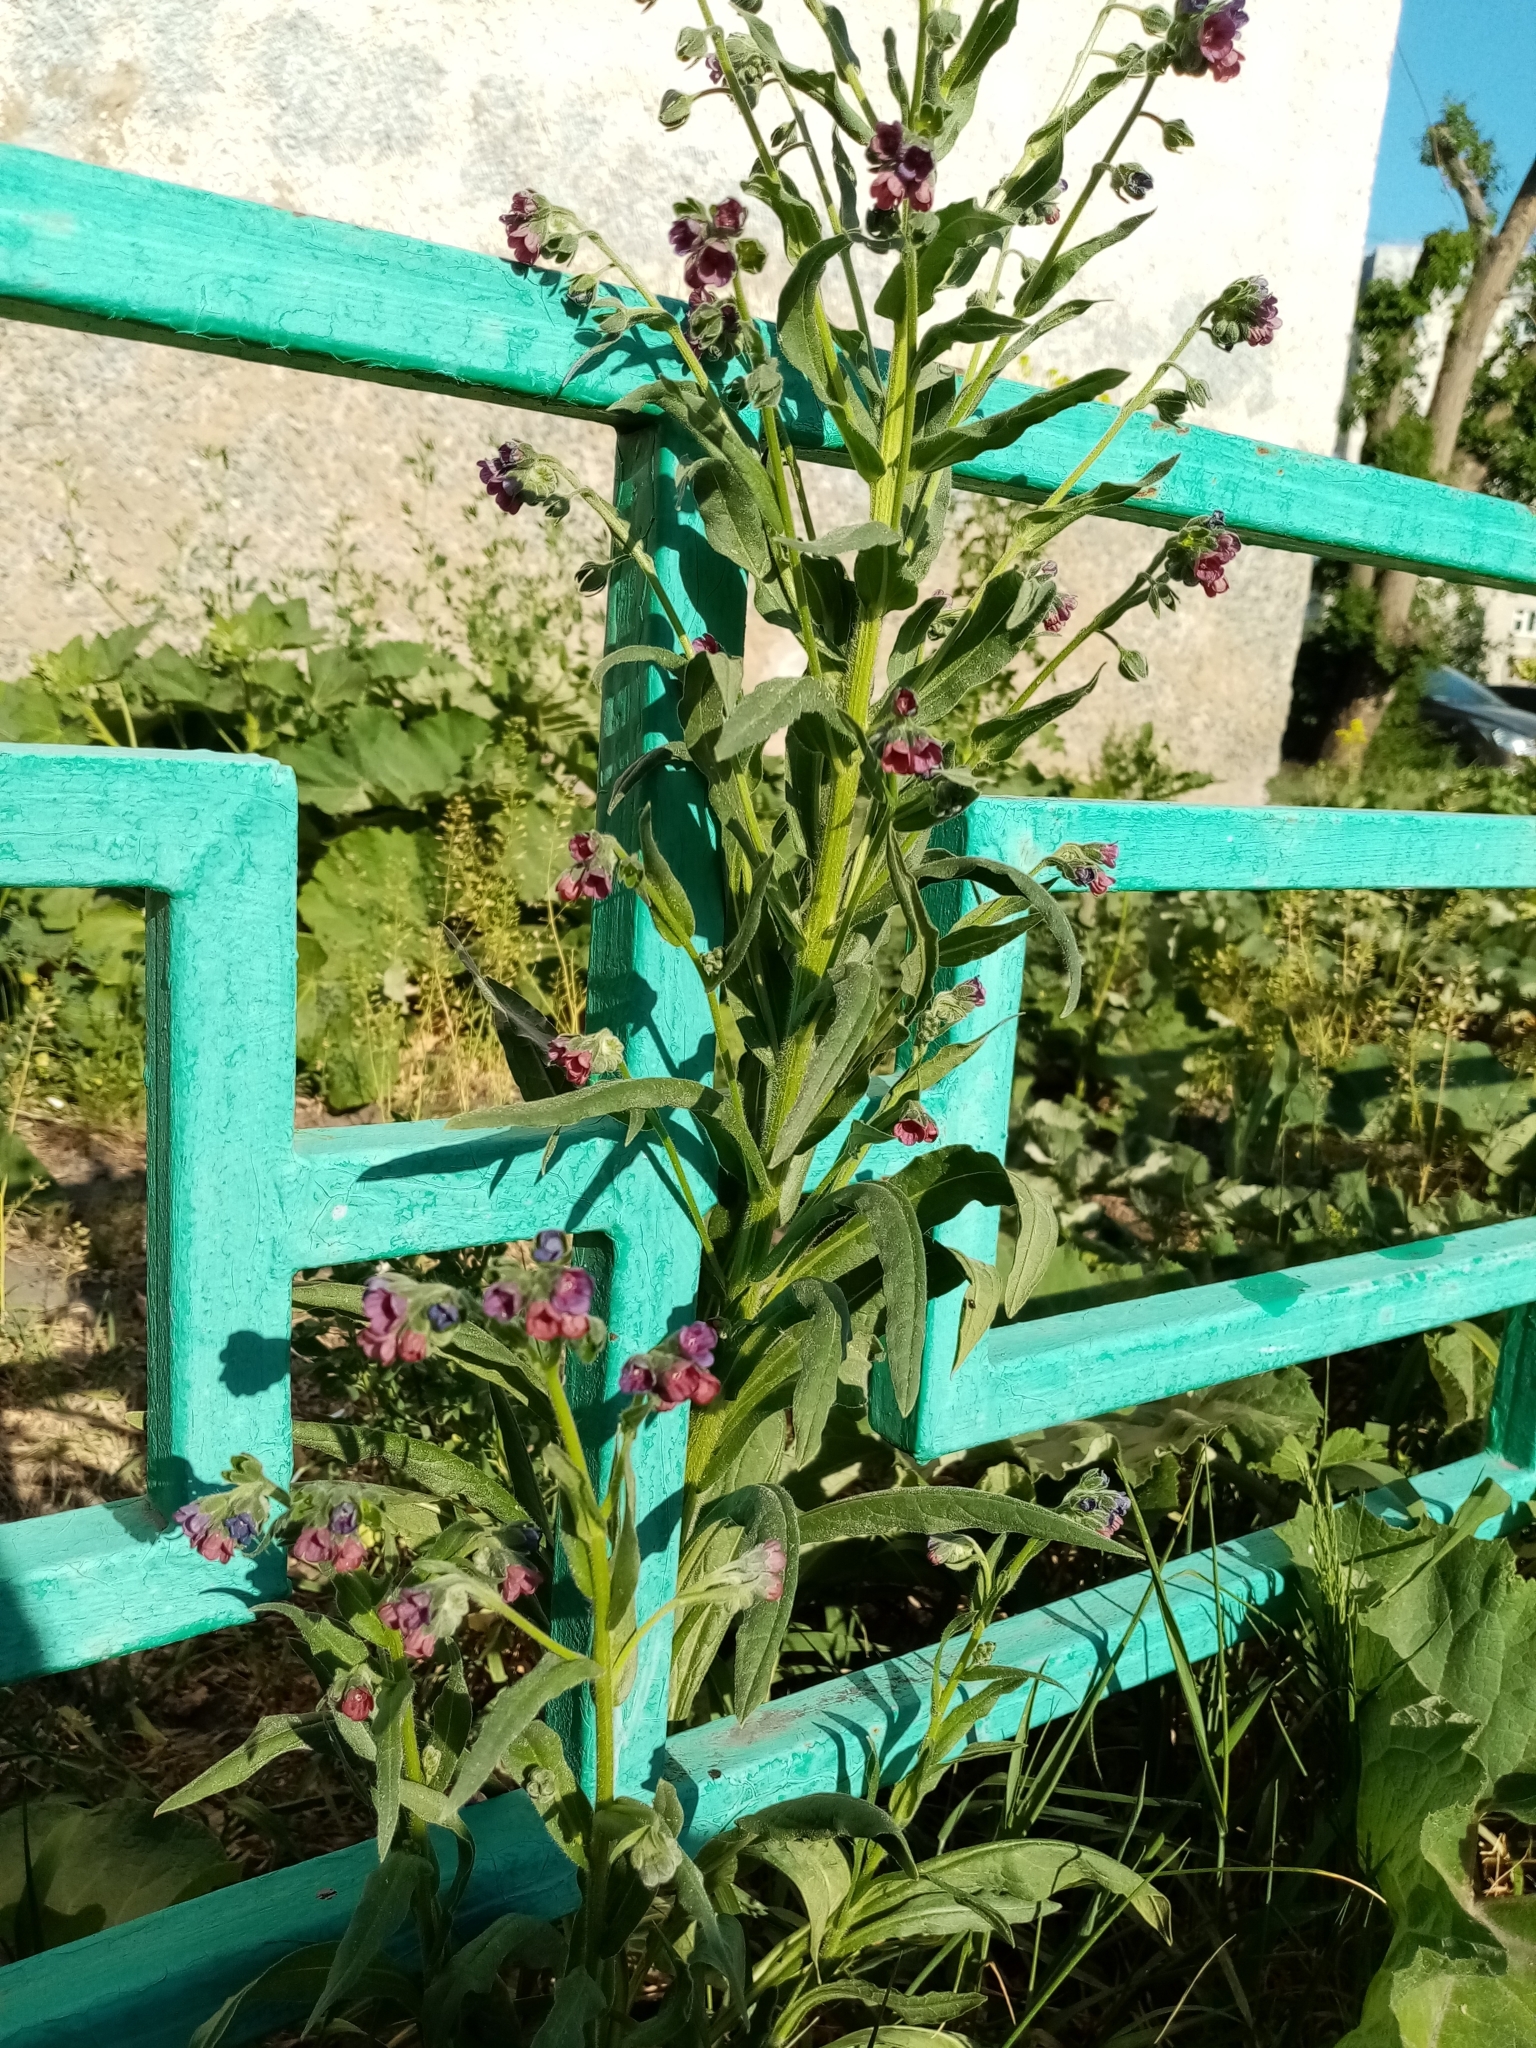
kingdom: Plantae
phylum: Tracheophyta
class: Magnoliopsida
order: Boraginales
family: Boraginaceae
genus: Cynoglossum
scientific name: Cynoglossum officinale
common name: Hound's-tongue
